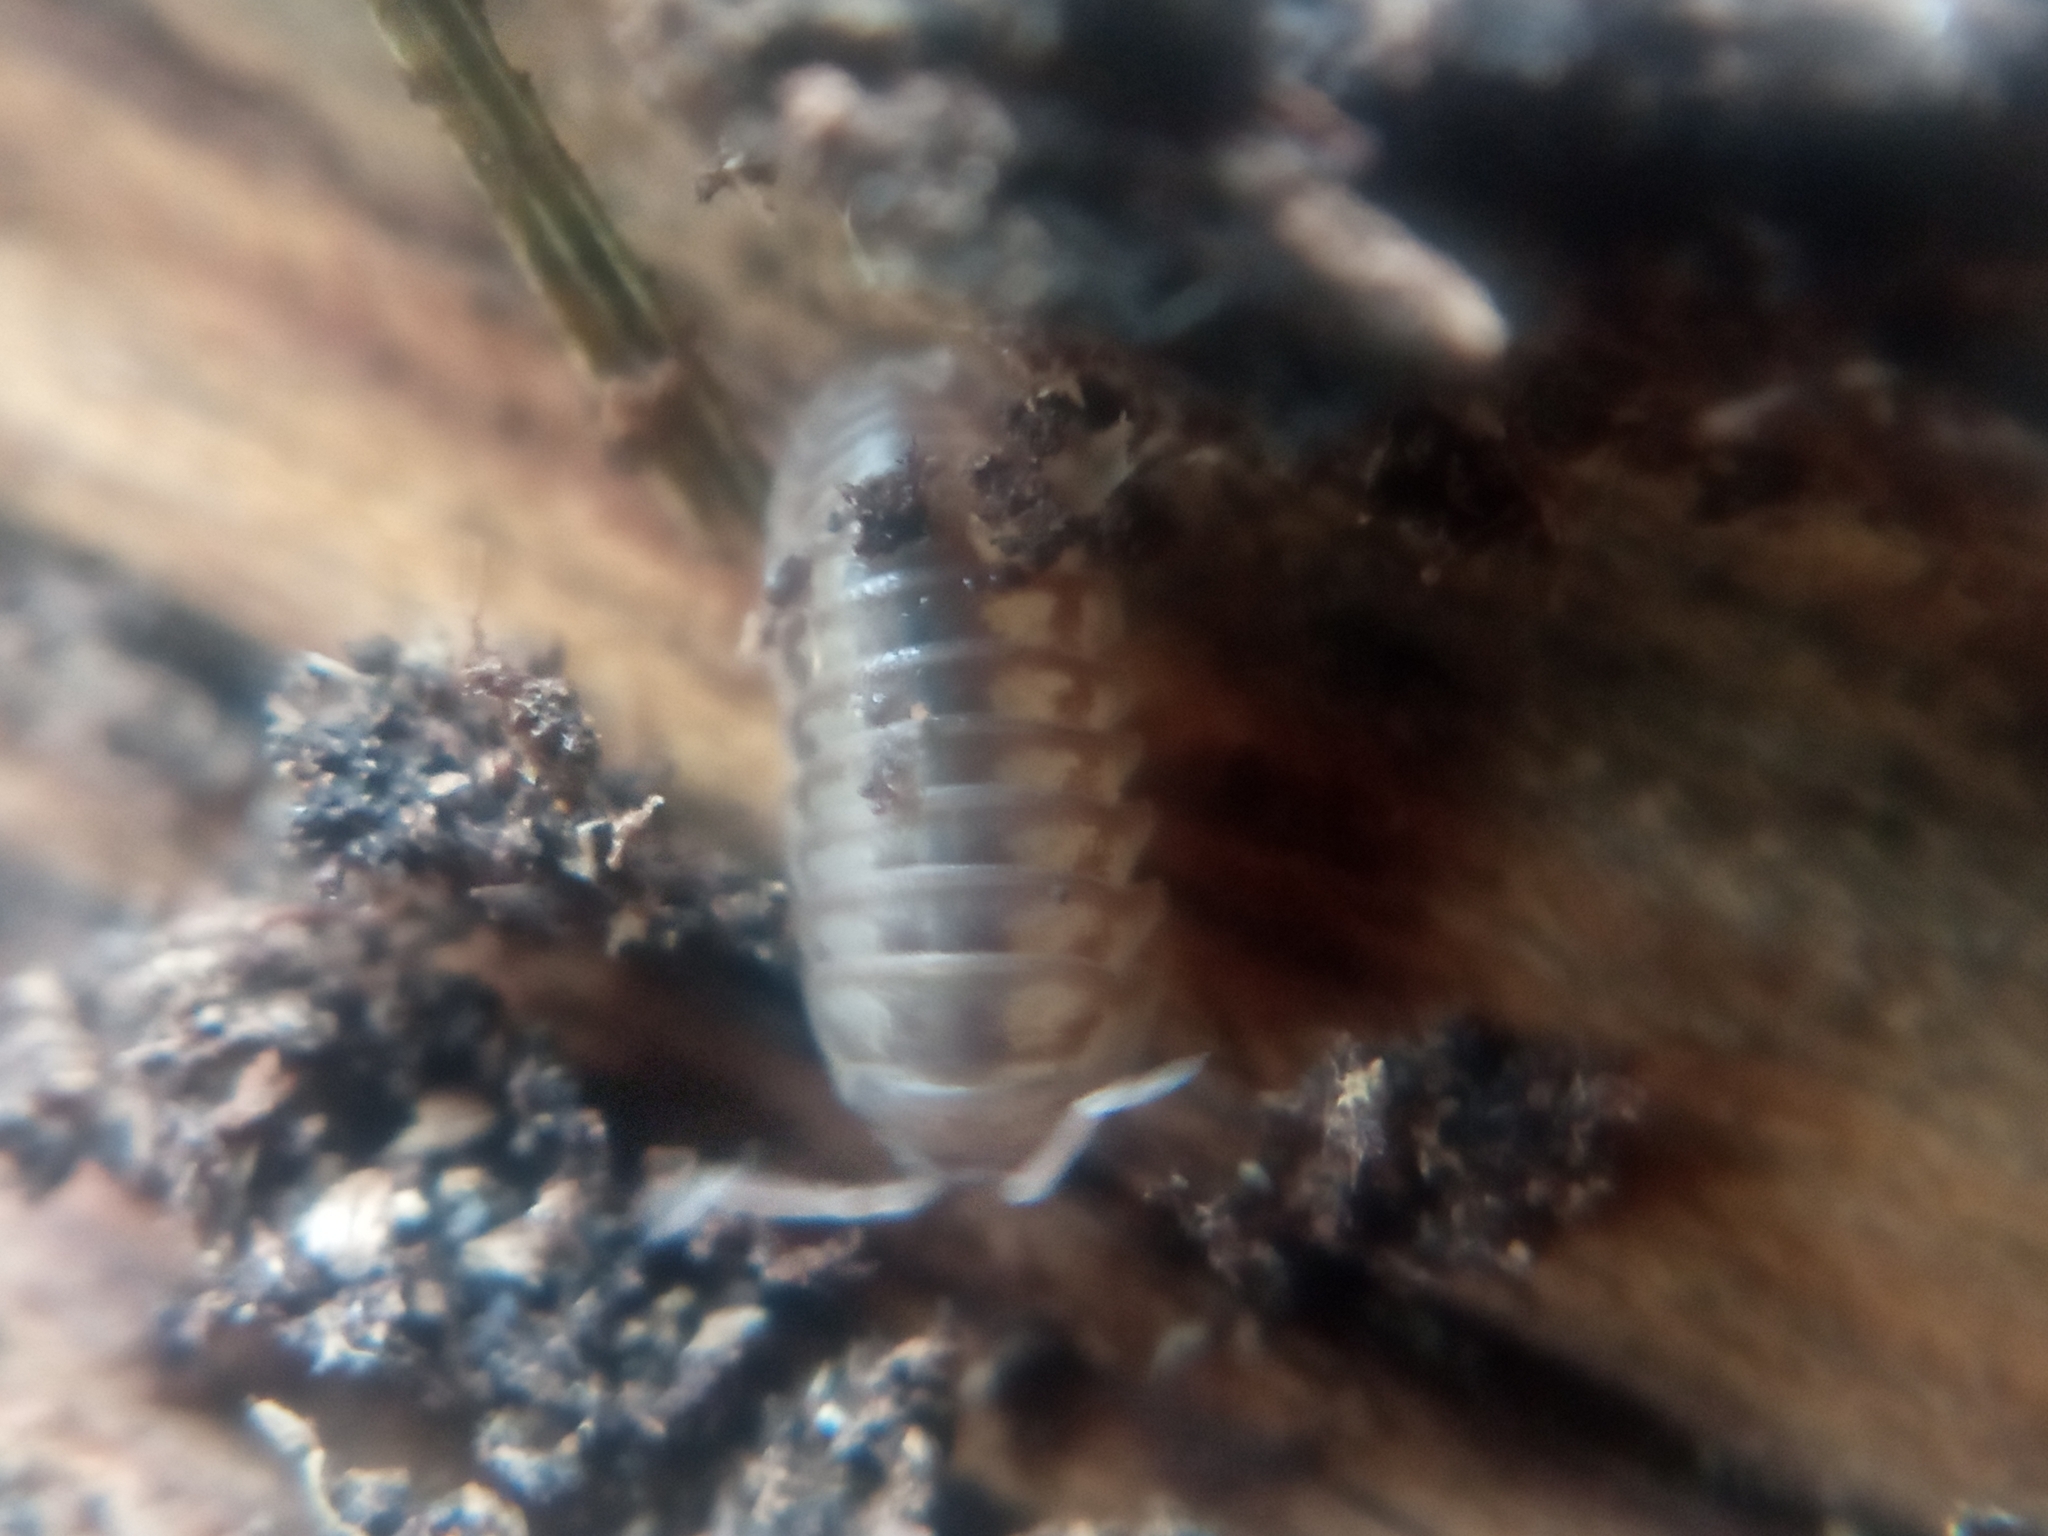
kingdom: Animalia
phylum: Arthropoda
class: Malacostraca
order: Isopoda
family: Armadillidiidae
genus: Armadillidium
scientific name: Armadillidium nasatum
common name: Isopod
